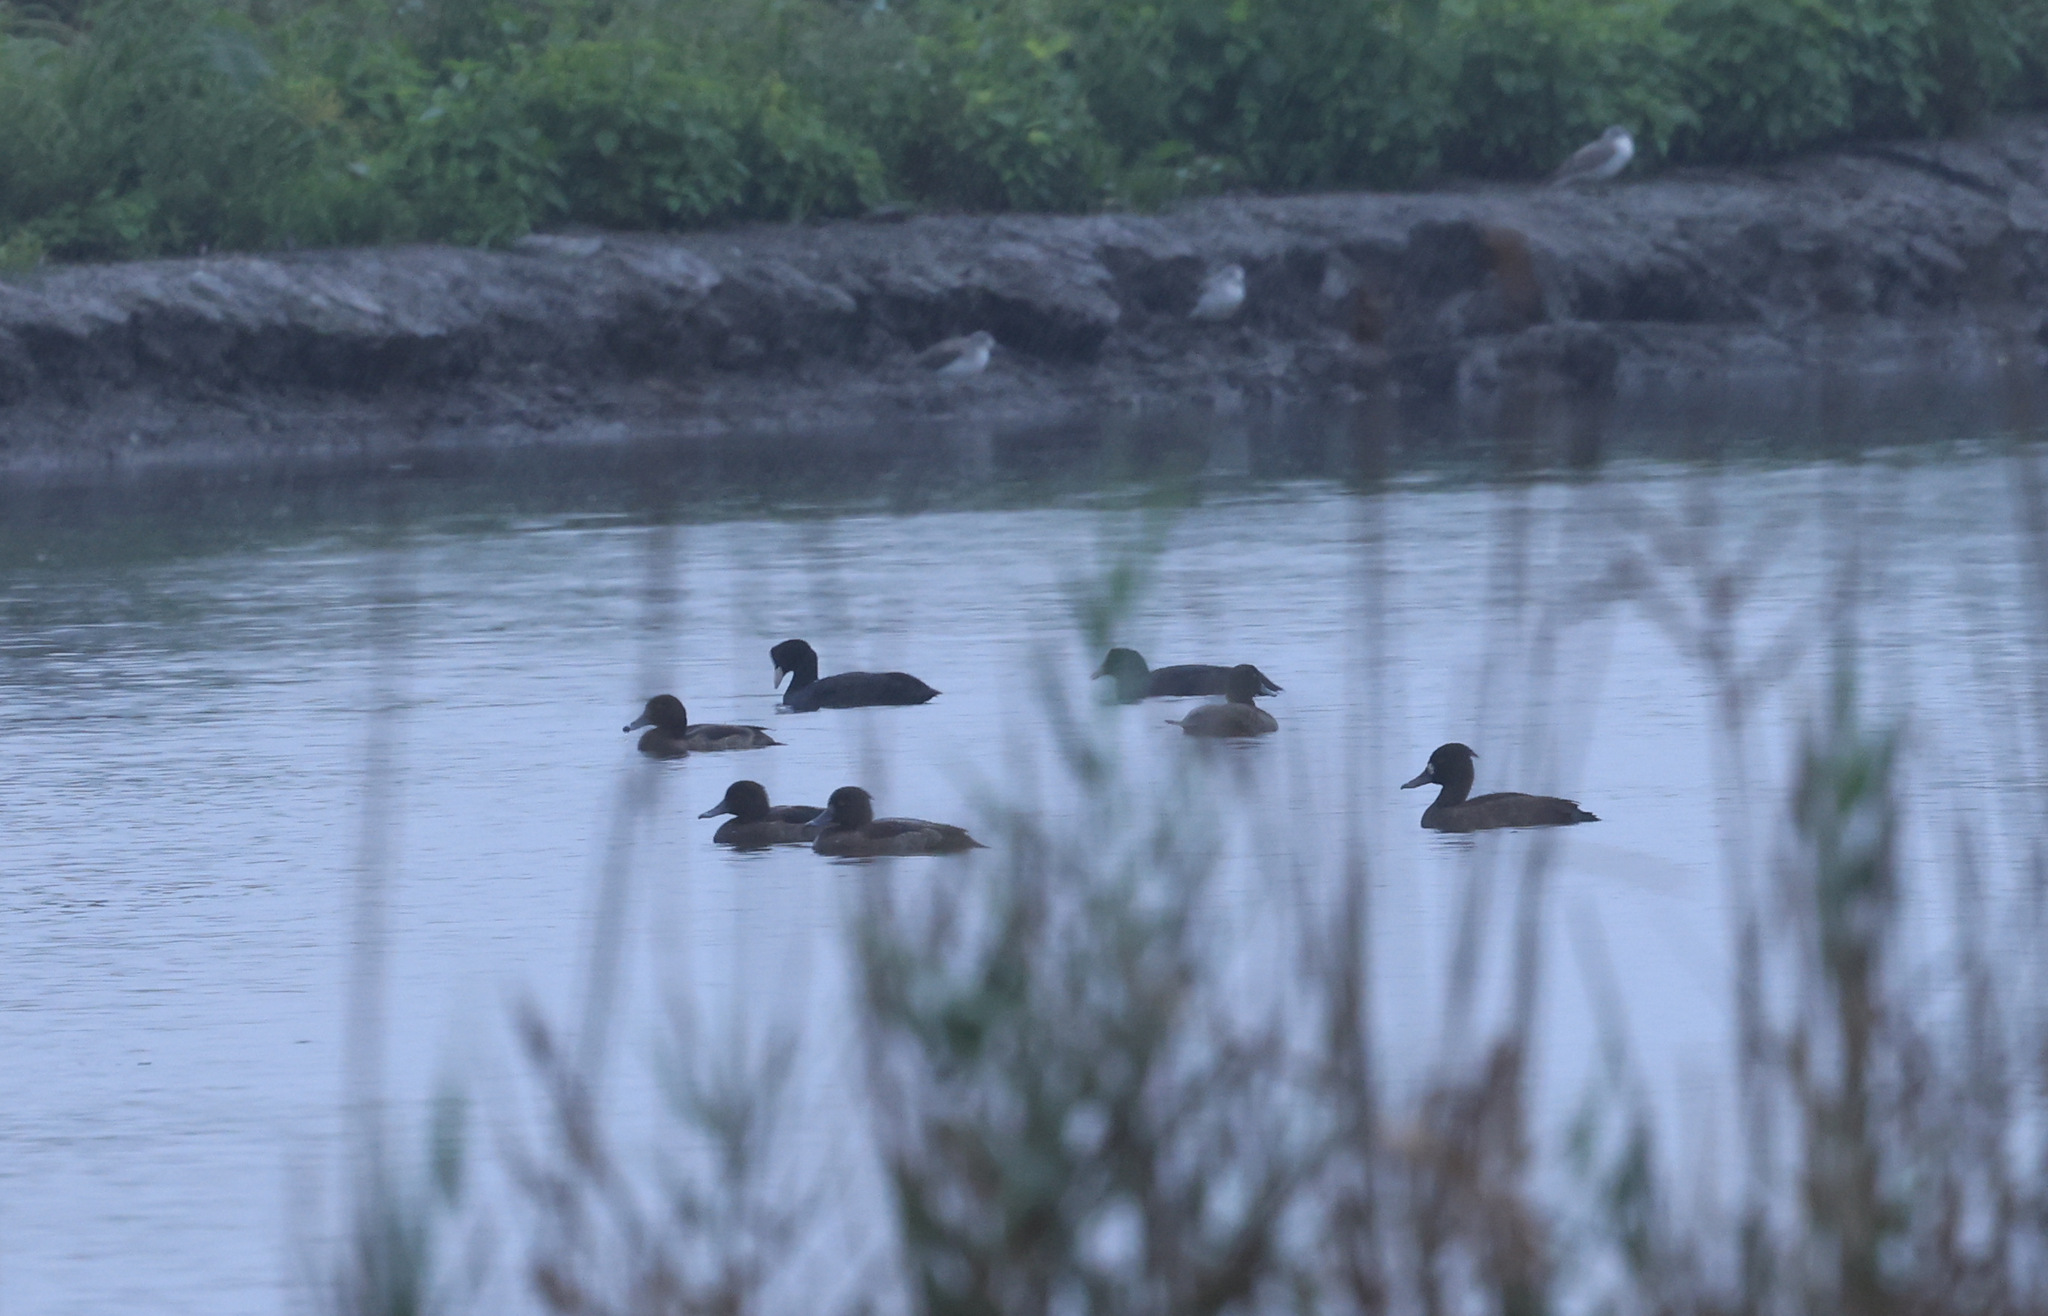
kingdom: Animalia
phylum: Chordata
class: Aves
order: Anseriformes
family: Anatidae
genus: Aythya
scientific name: Aythya fuligula
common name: Tufted duck
